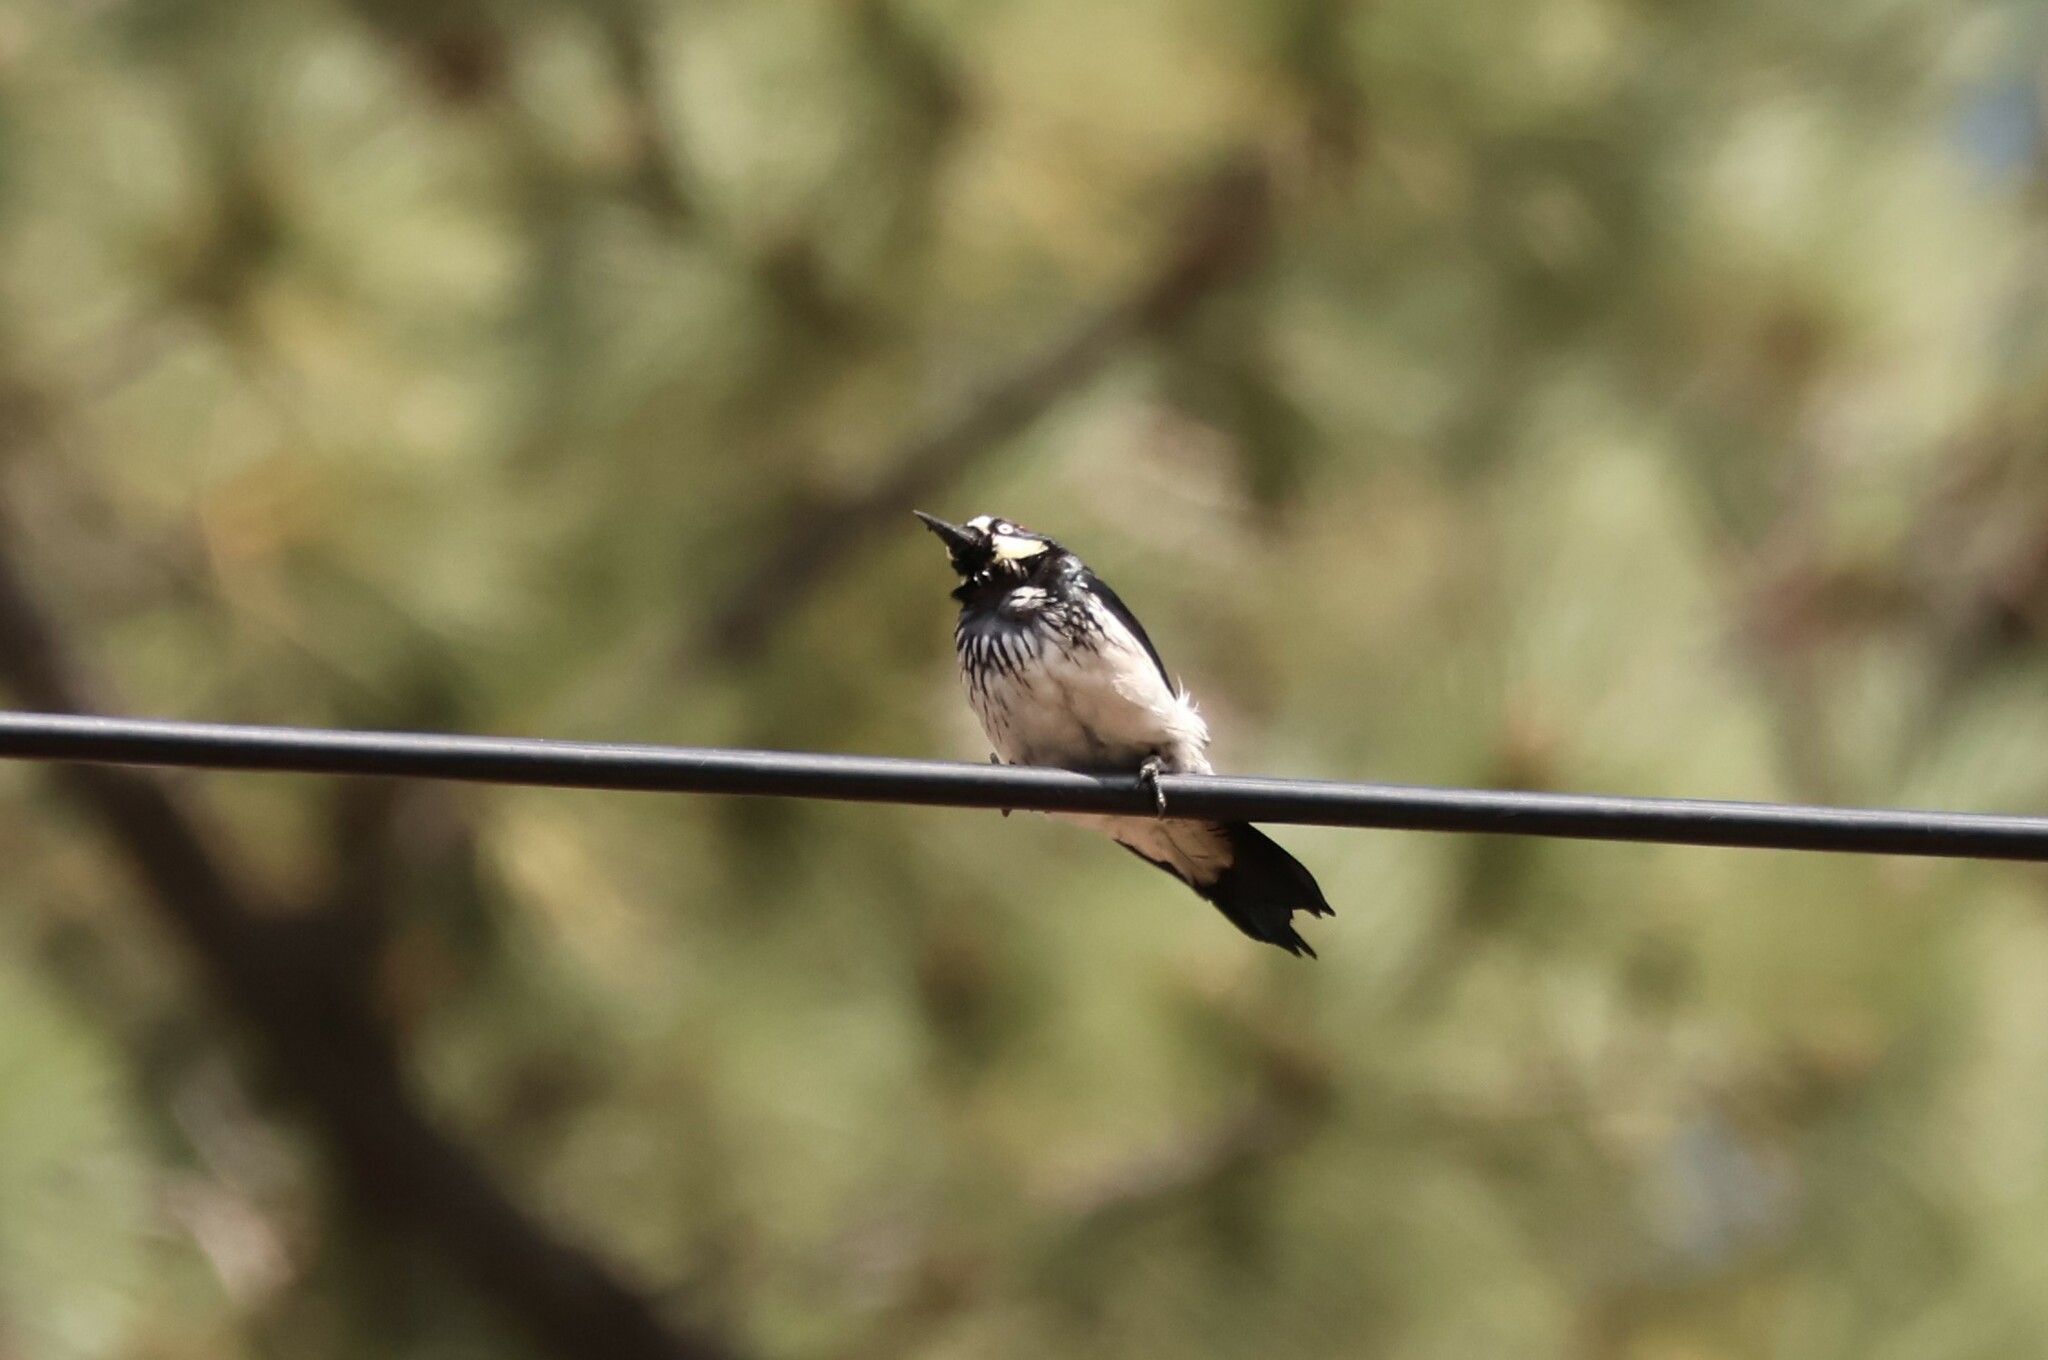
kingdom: Animalia
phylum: Chordata
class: Aves
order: Piciformes
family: Picidae
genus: Melanerpes
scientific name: Melanerpes formicivorus
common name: Acorn woodpecker
